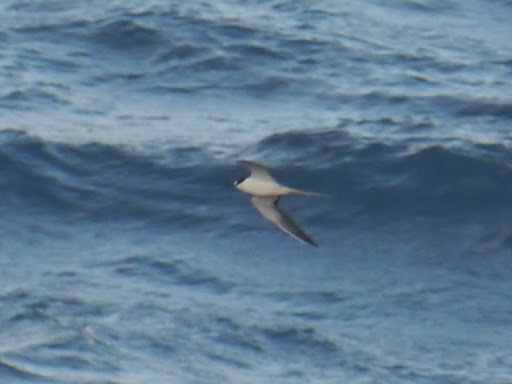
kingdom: Animalia
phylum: Chordata
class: Aves
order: Charadriiformes
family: Laridae
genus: Onychoprion
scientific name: Onychoprion fuscatus
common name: Sooty tern
